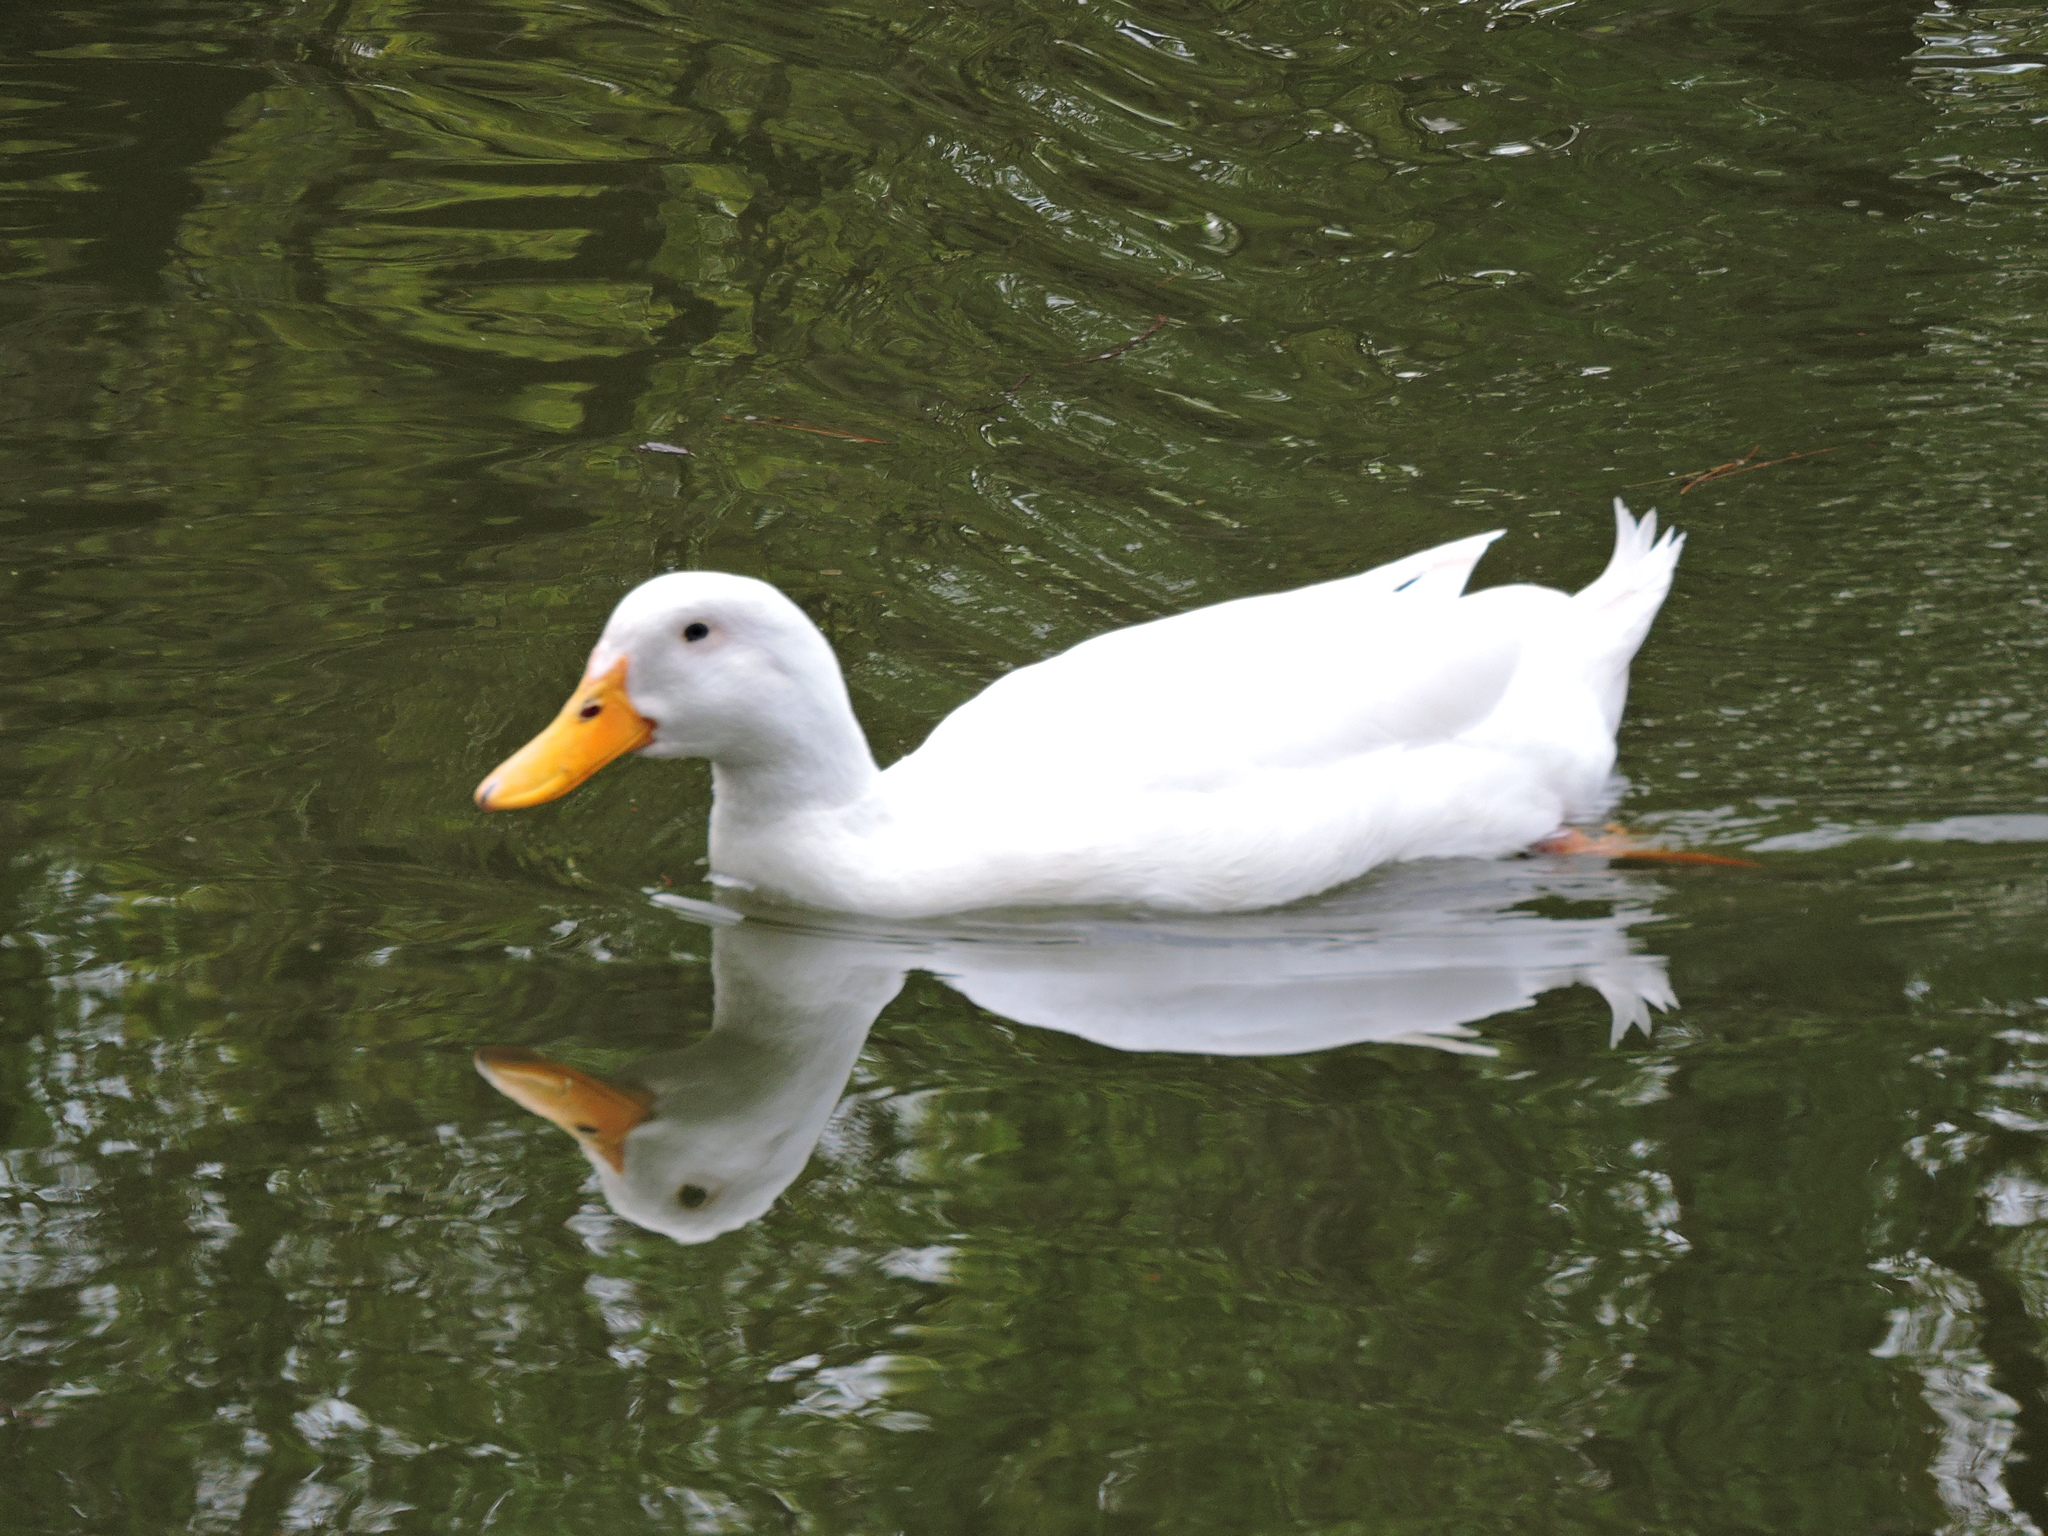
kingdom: Animalia
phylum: Chordata
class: Aves
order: Anseriformes
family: Anatidae
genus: Anas
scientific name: Anas platyrhynchos
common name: Mallard
